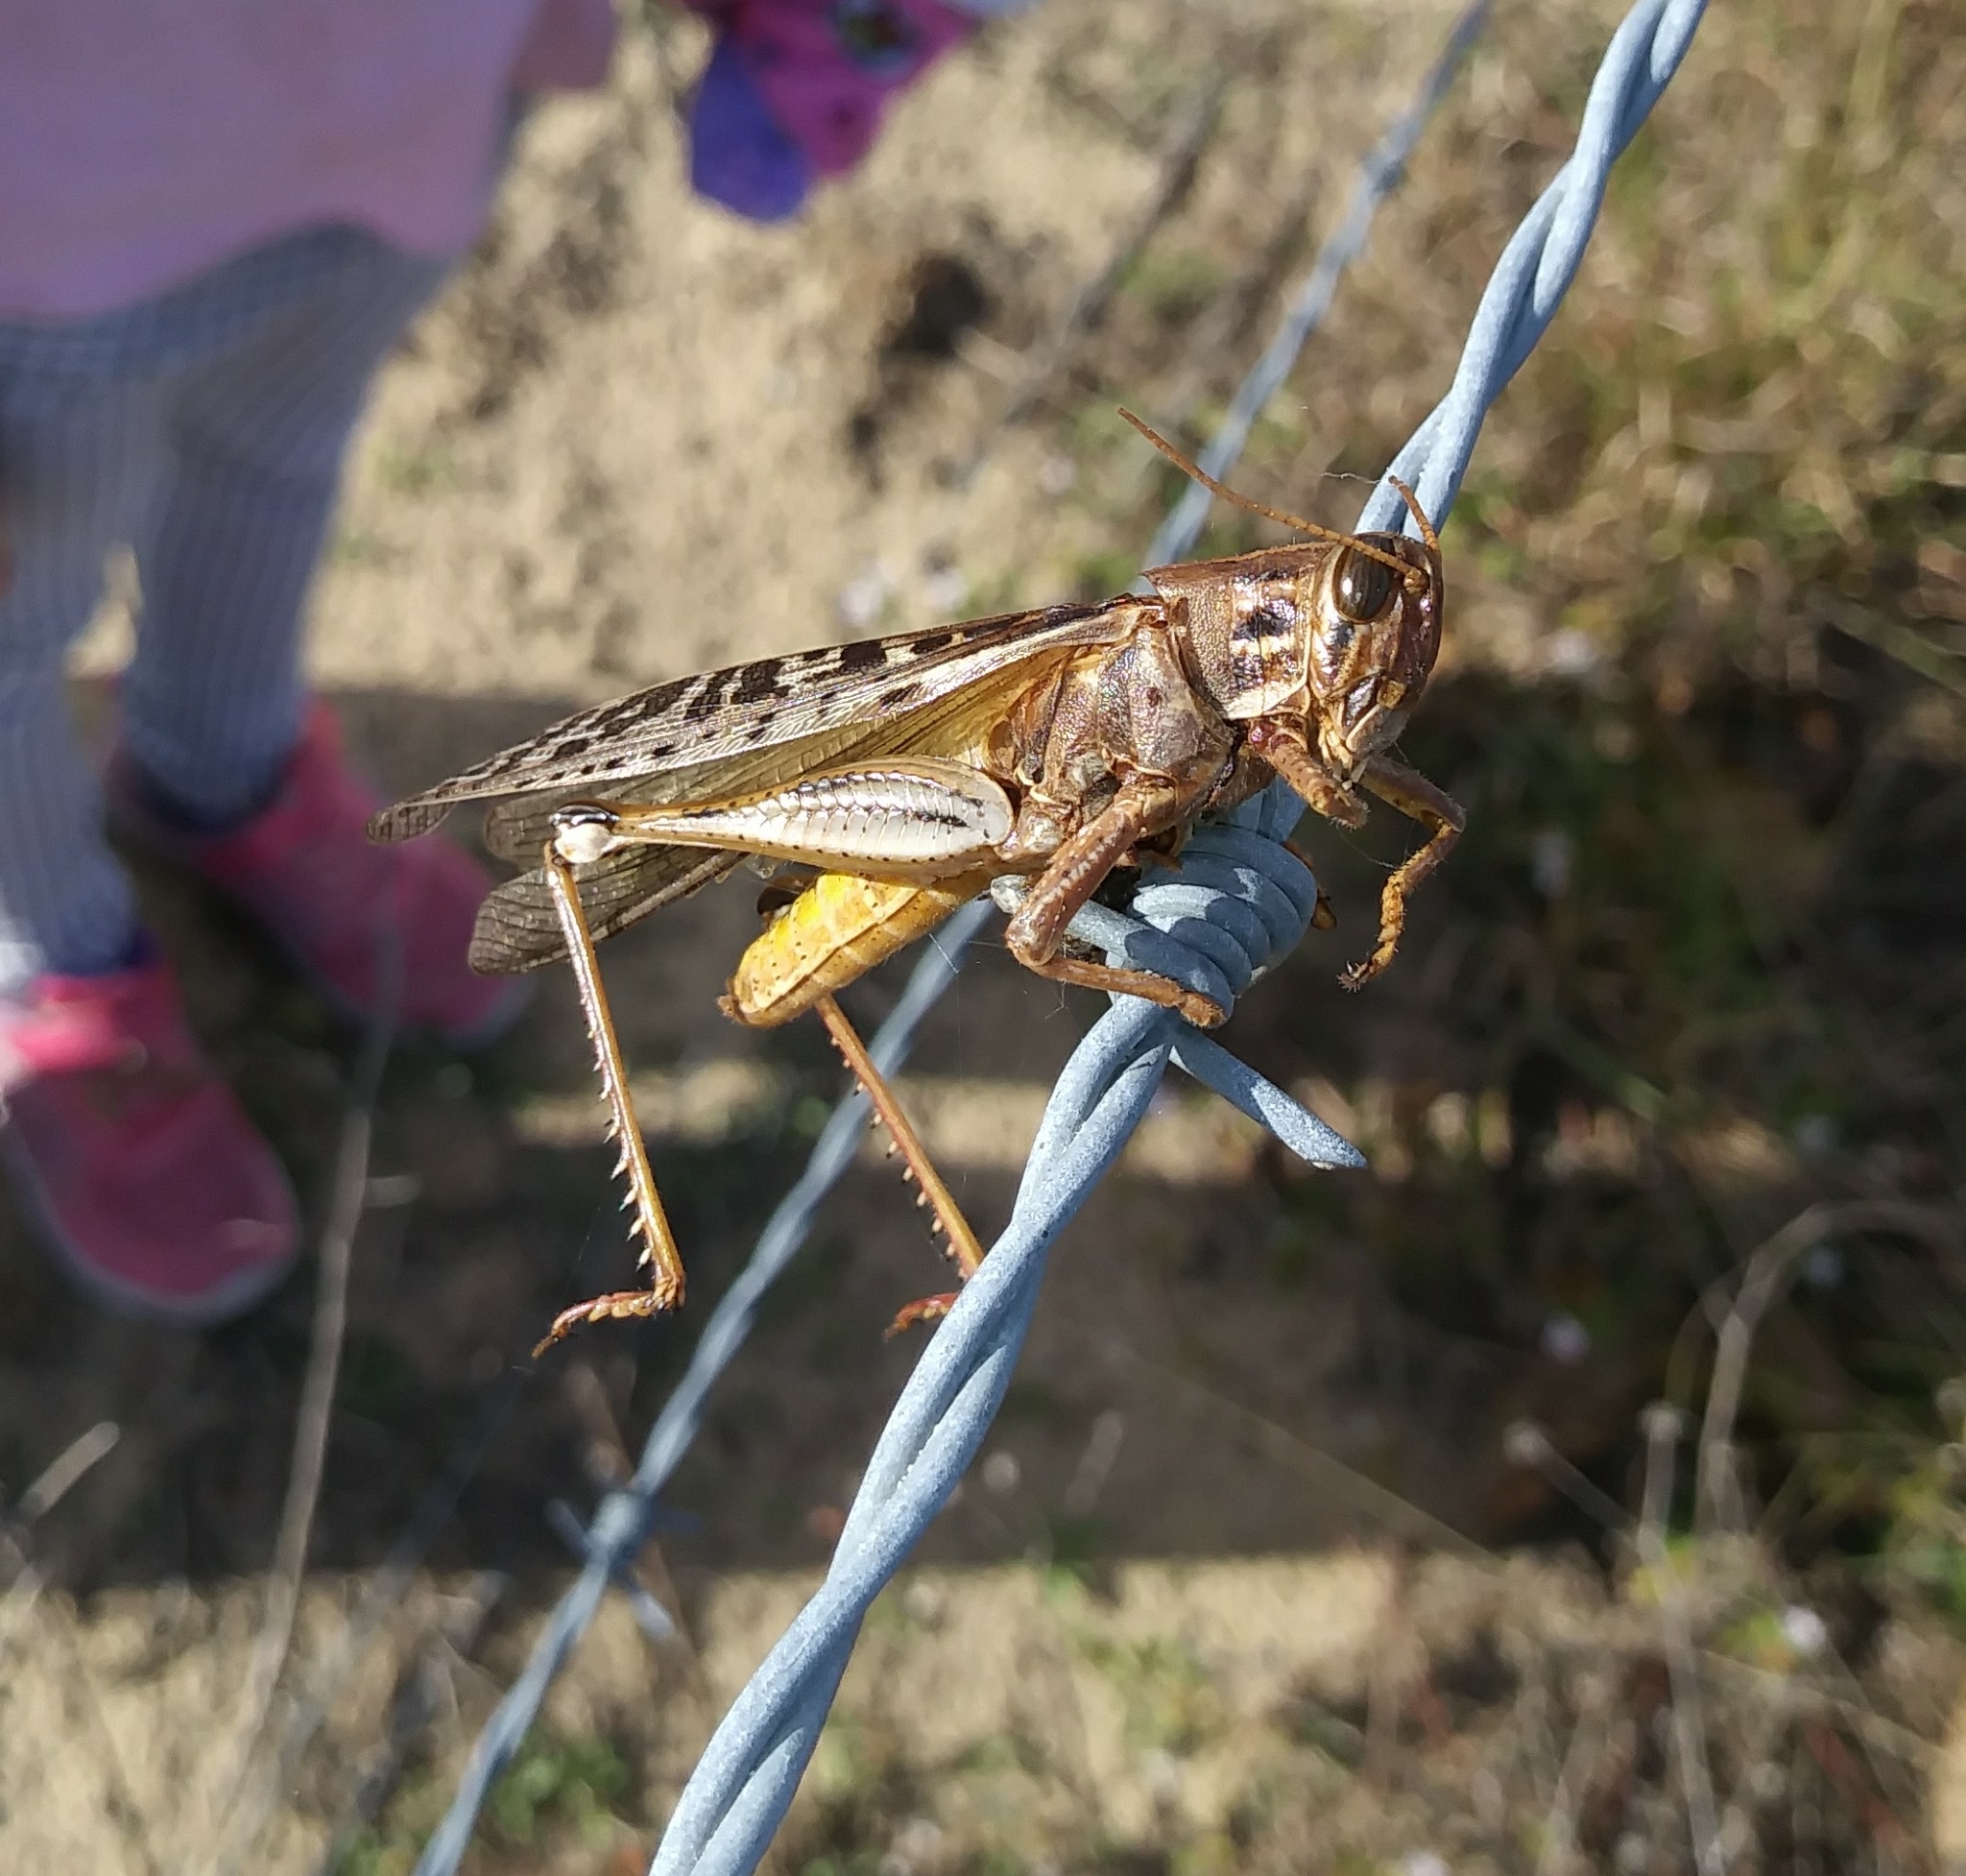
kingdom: Animalia
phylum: Arthropoda
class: Insecta
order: Orthoptera
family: Acrididae
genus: Schistocerca
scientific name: Schistocerca americana
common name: American bird locust
